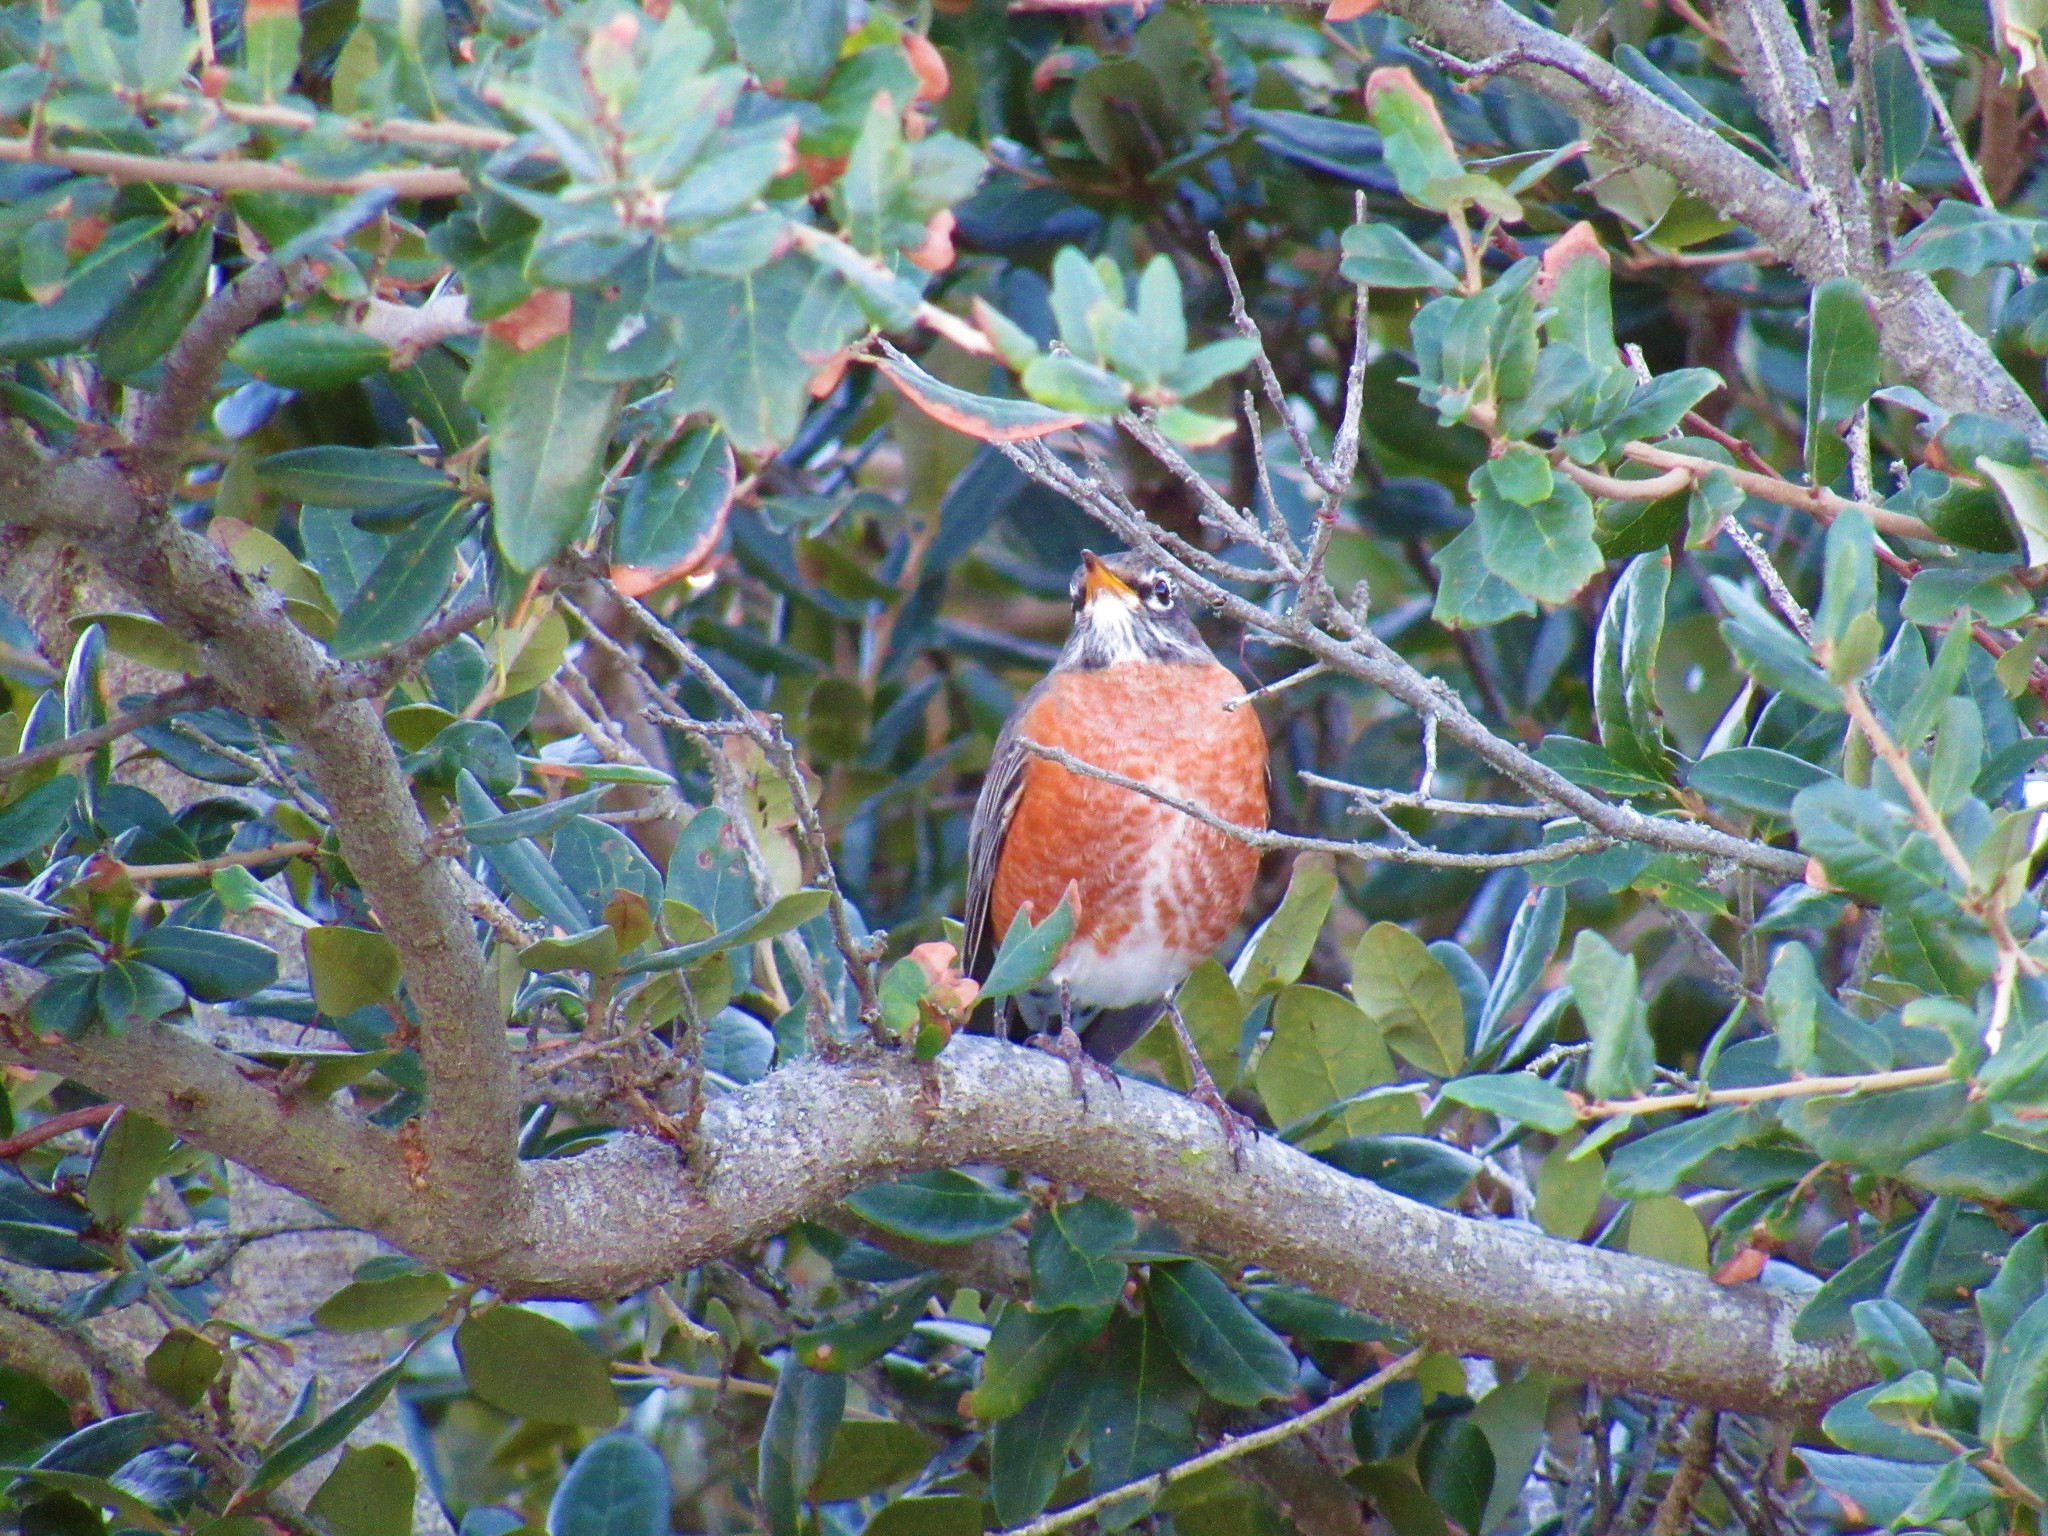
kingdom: Animalia
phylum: Chordata
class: Aves
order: Passeriformes
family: Turdidae
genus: Turdus
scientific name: Turdus migratorius
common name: American robin
